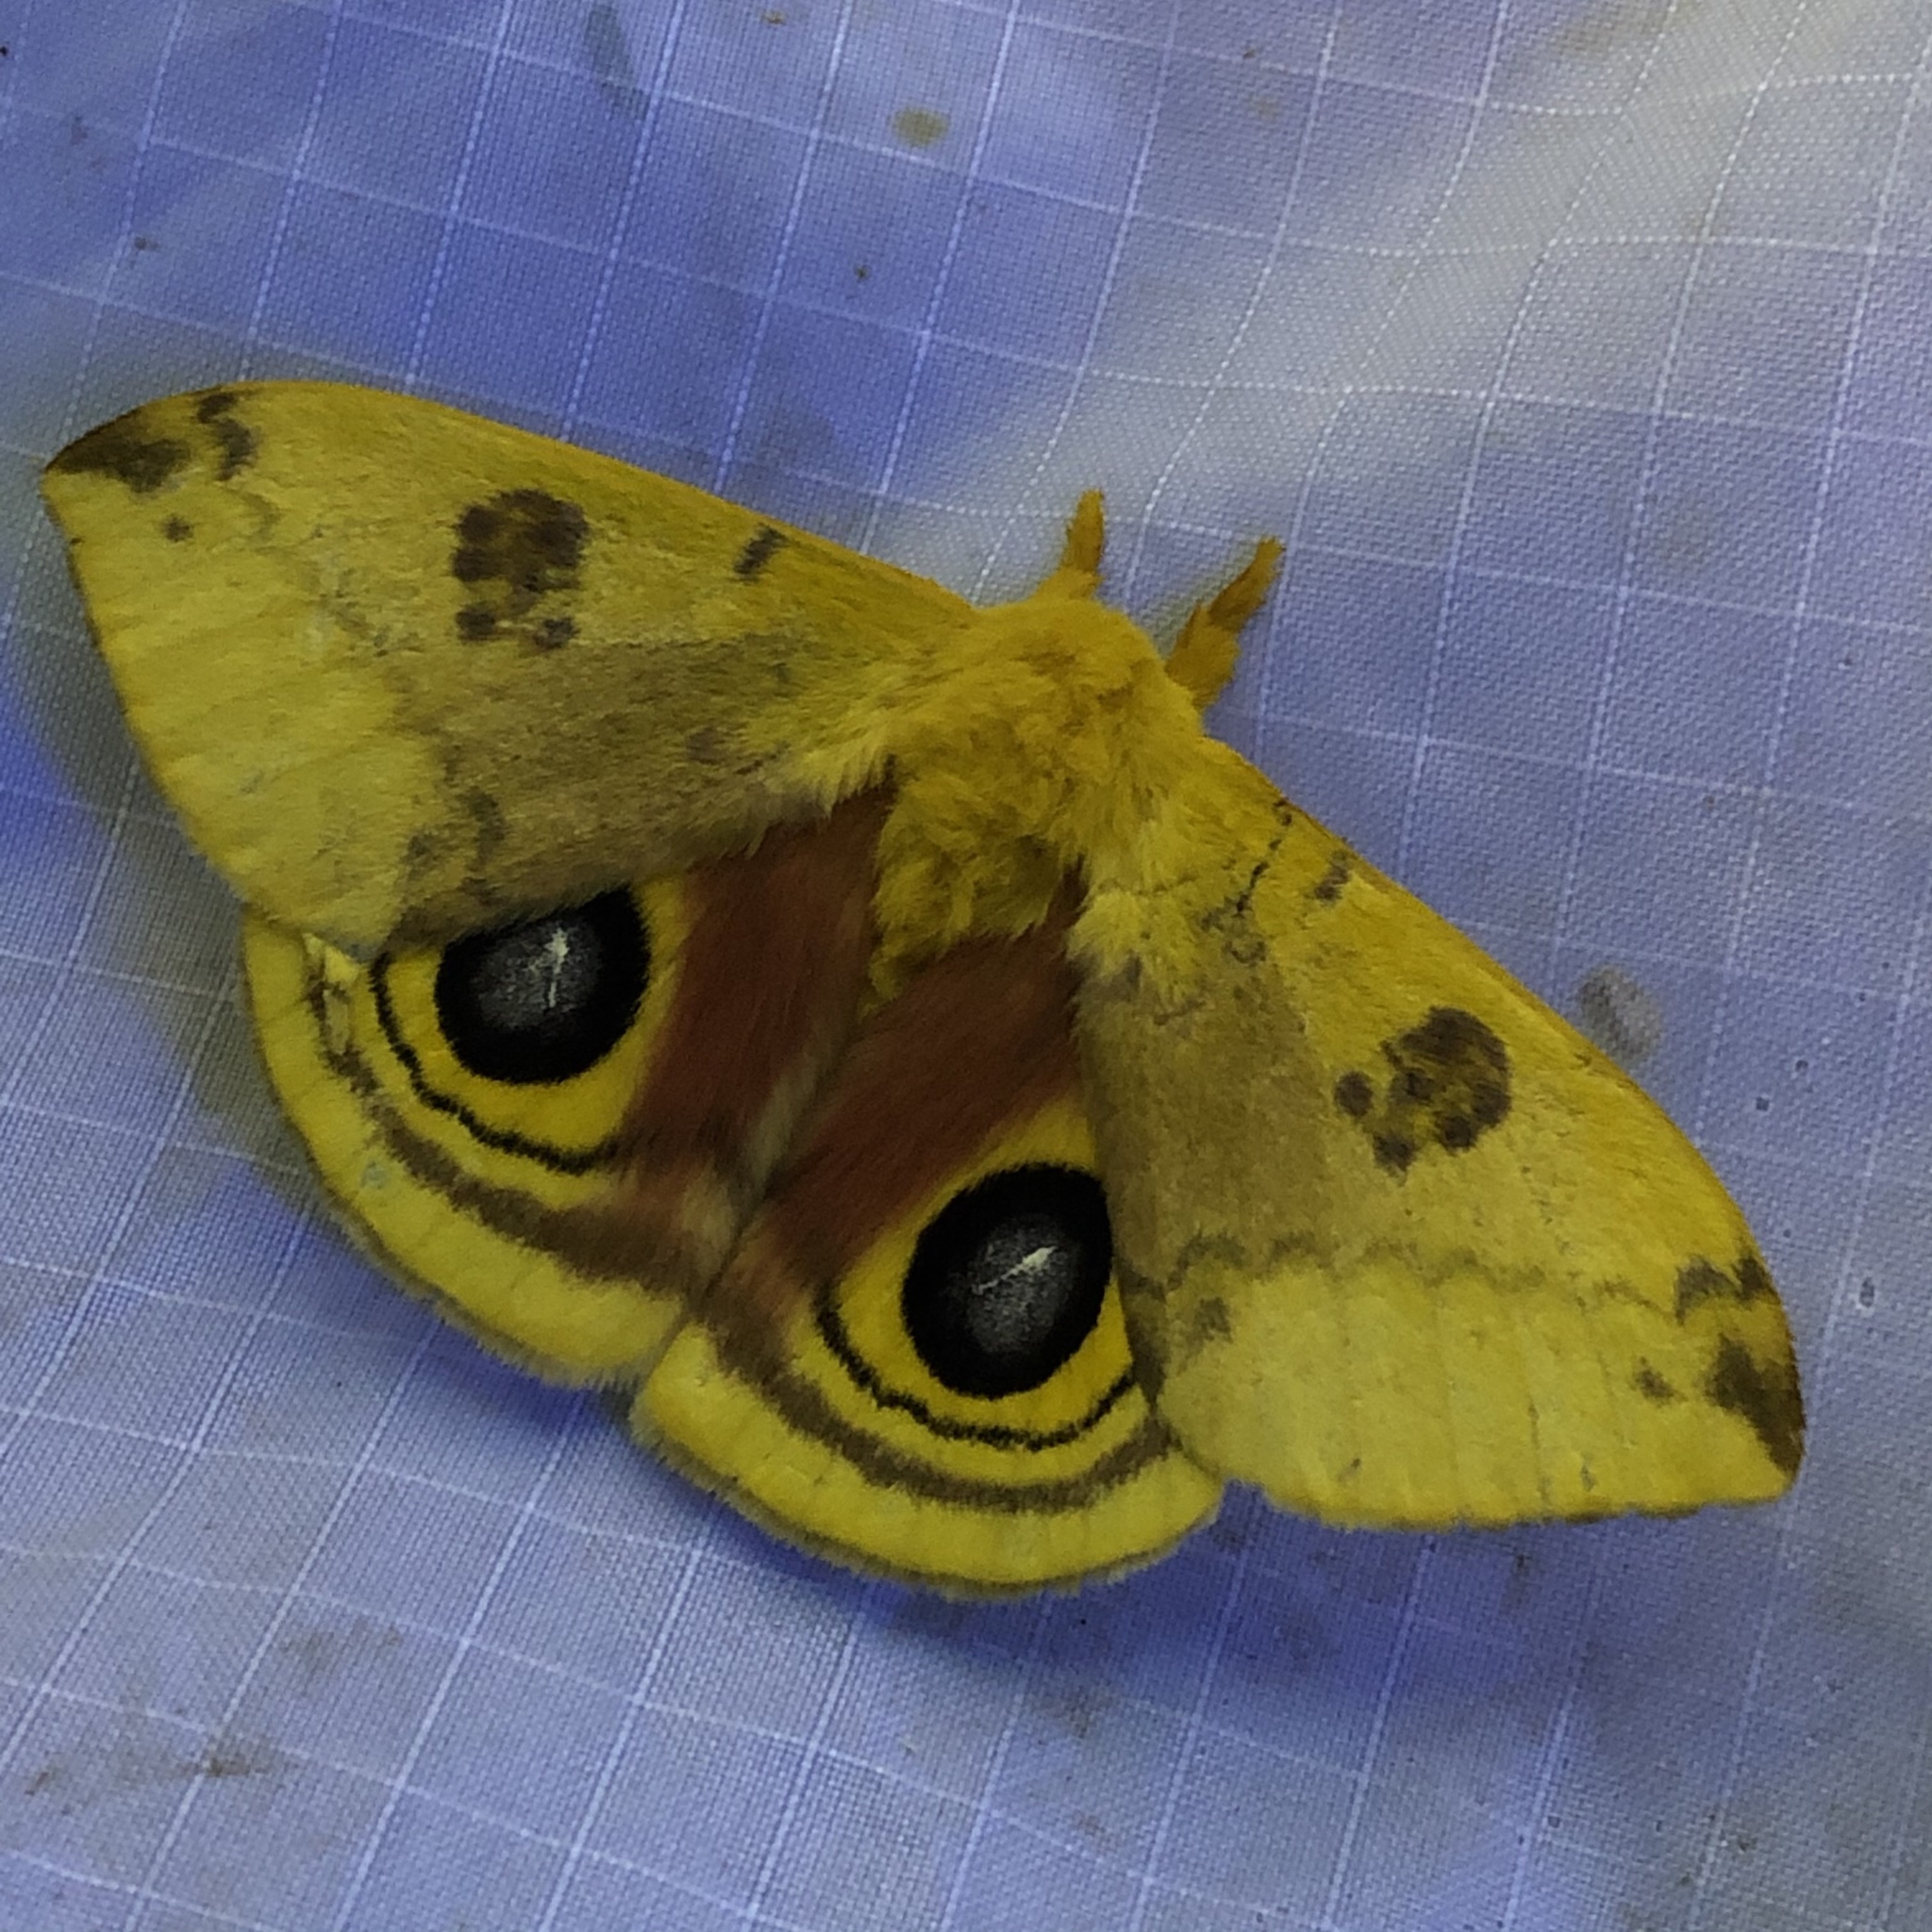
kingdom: Animalia
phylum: Arthropoda
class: Insecta
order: Lepidoptera
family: Saturniidae
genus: Automeris
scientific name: Automeris io
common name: Io moth
